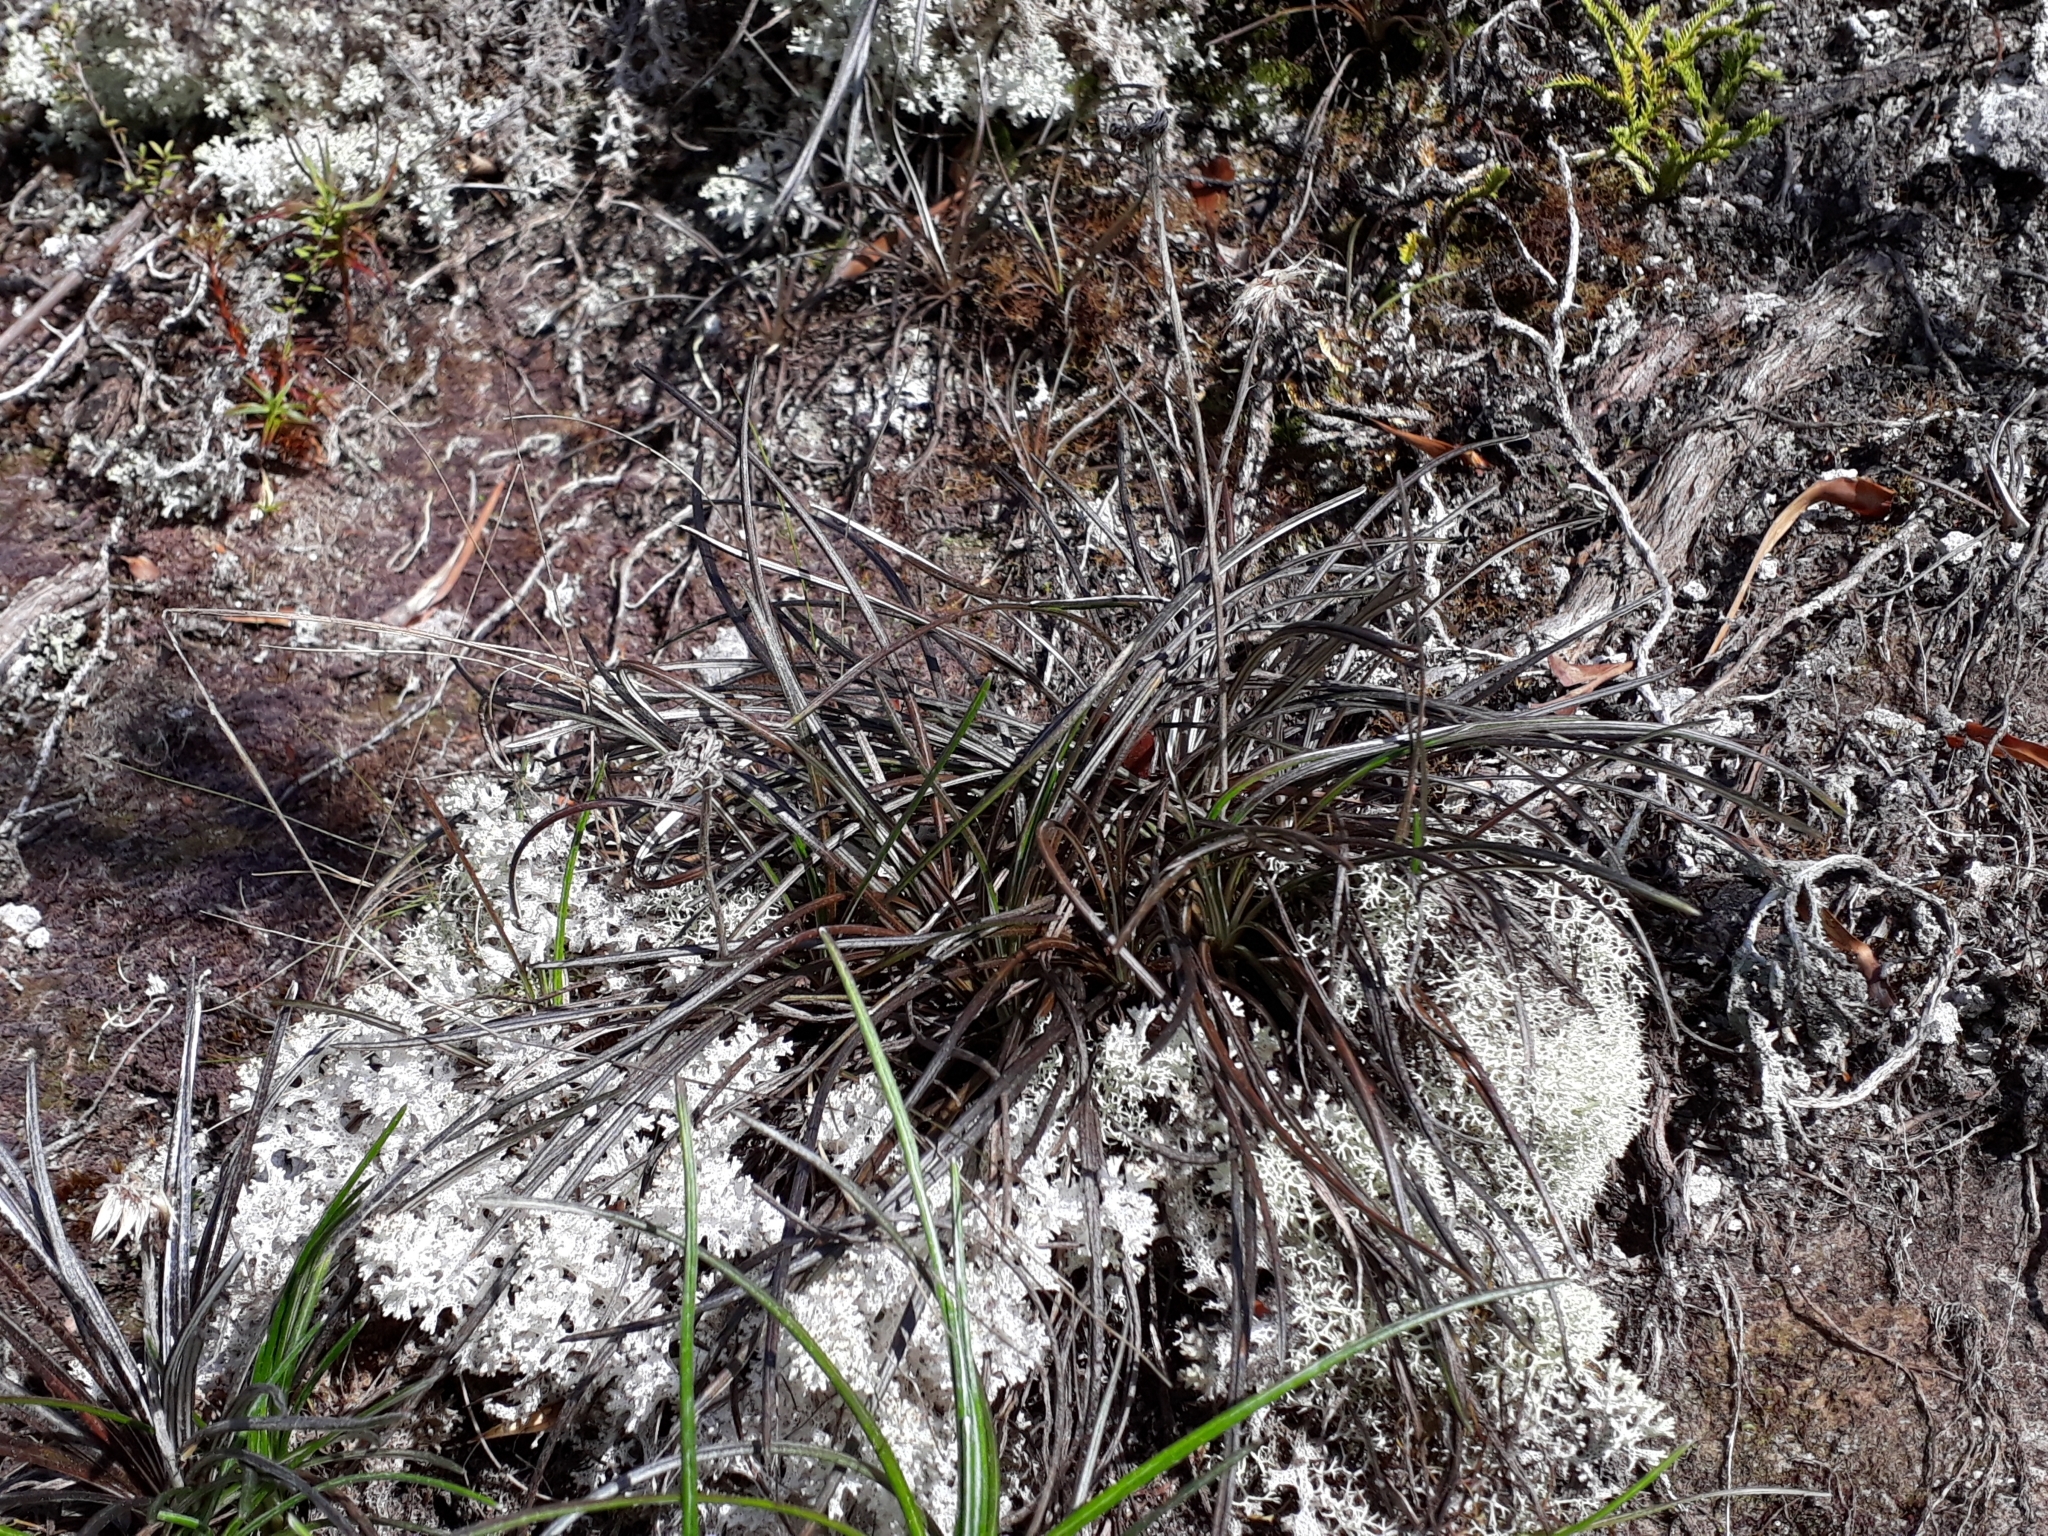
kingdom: Plantae
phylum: Tracheophyta
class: Magnoliopsida
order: Asterales
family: Asteraceae
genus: Celmisia
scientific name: Celmisia gracilenta
